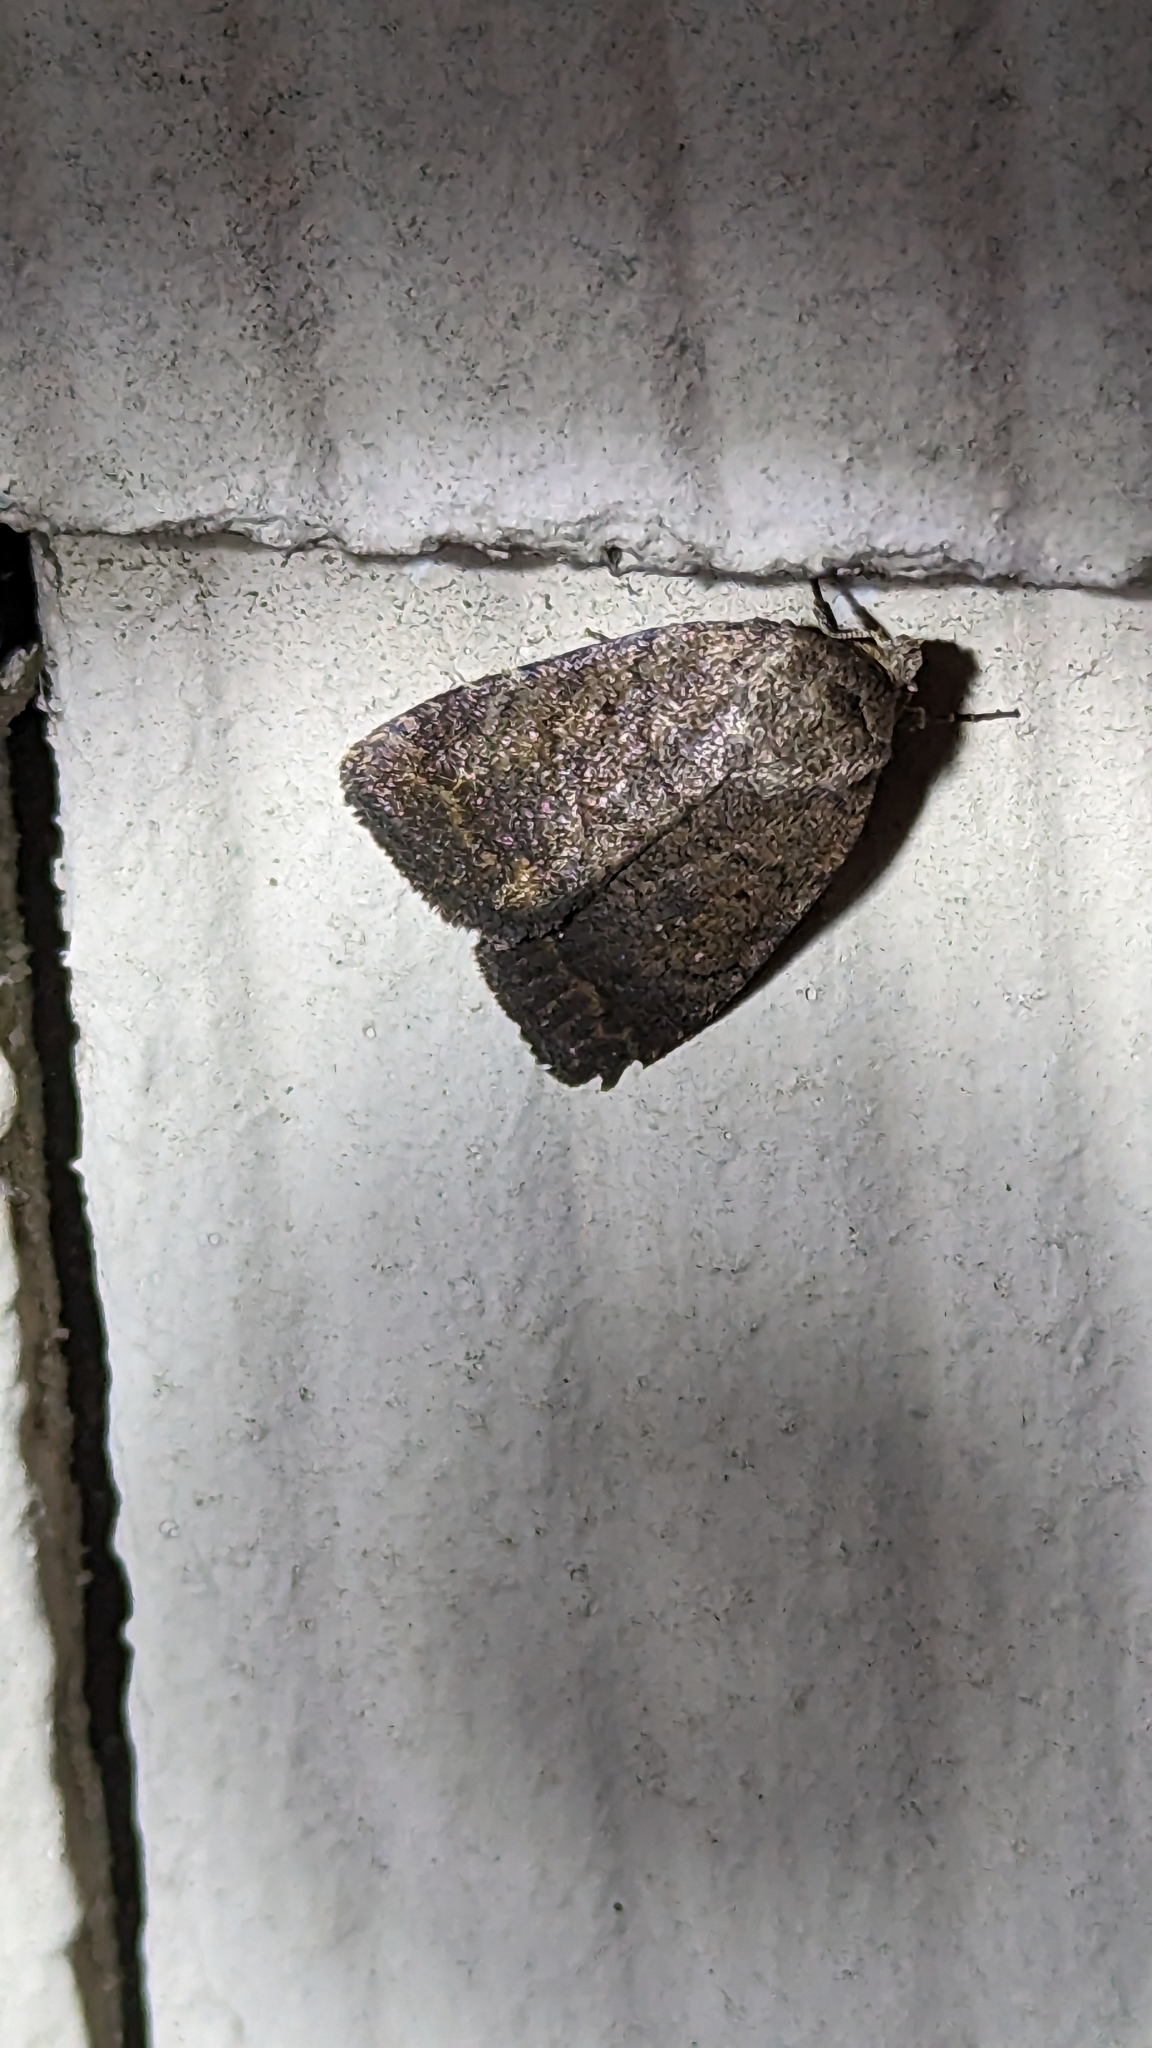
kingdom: Animalia
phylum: Arthropoda
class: Insecta
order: Lepidoptera
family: Noctuidae
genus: Athetis
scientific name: Athetis tarda
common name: Slowpoke moth
